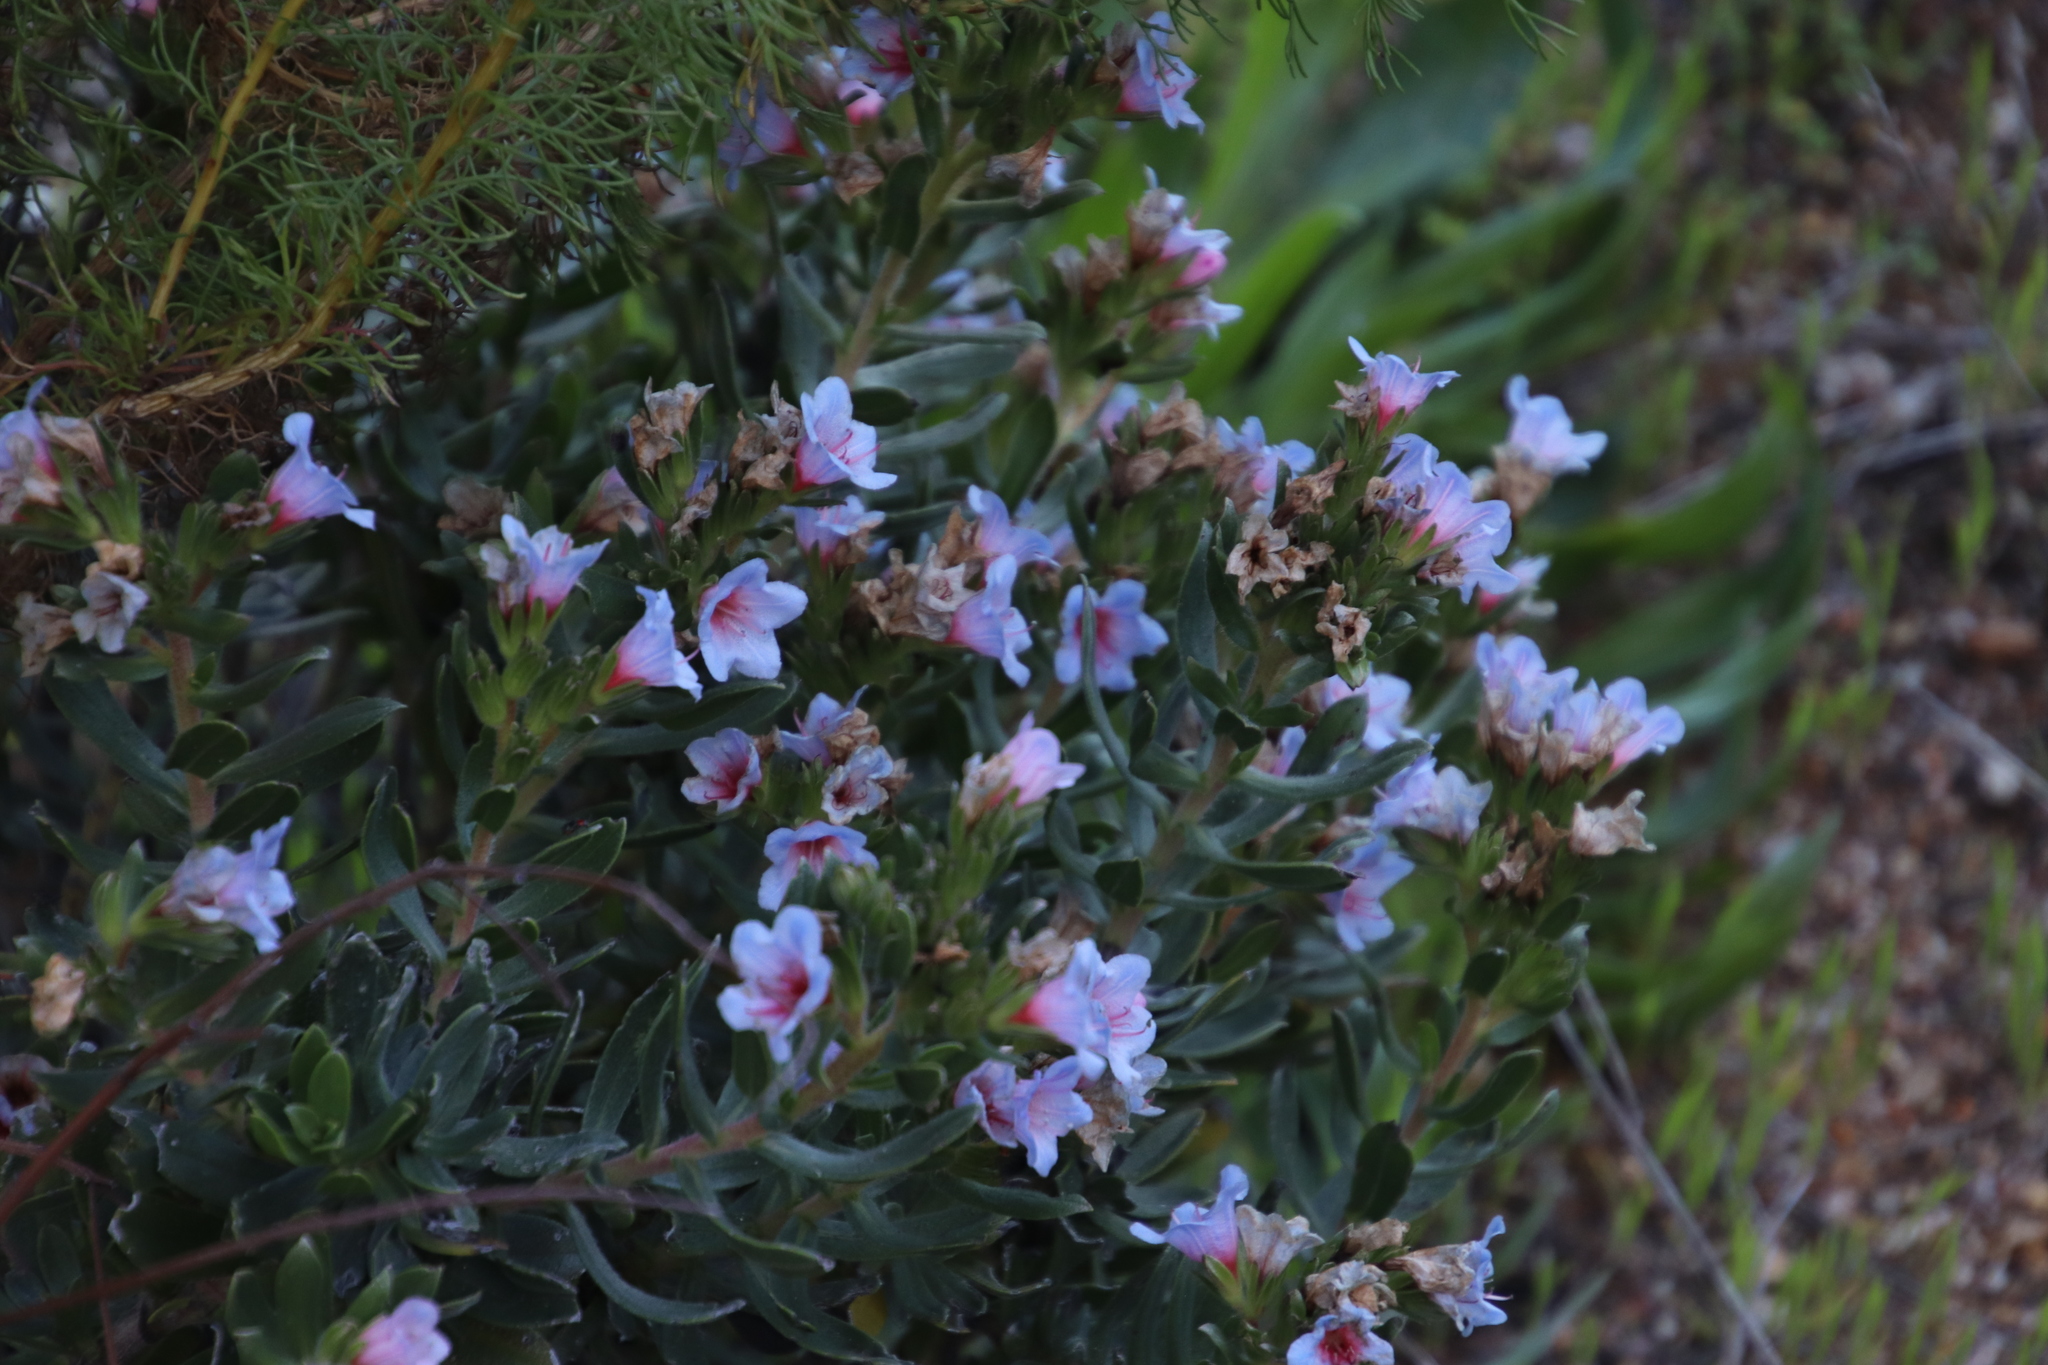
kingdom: Plantae
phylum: Tracheophyta
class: Magnoliopsida
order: Boraginales
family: Boraginaceae
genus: Lobostemon
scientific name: Lobostemon fruticosus
